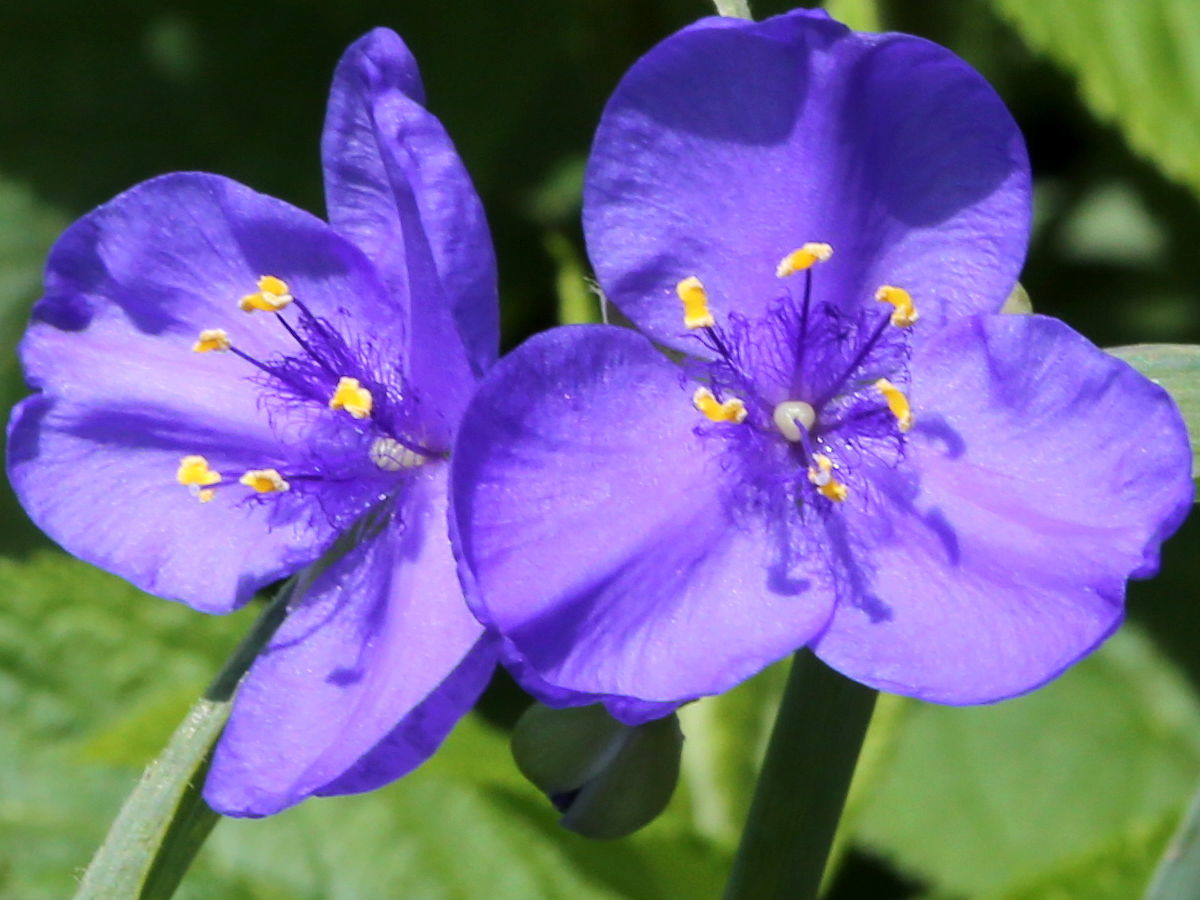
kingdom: Plantae
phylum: Tracheophyta
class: Liliopsida
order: Commelinales
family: Commelinaceae
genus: Tradescantia
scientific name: Tradescantia ohiensis
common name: Ohio spiderwort
